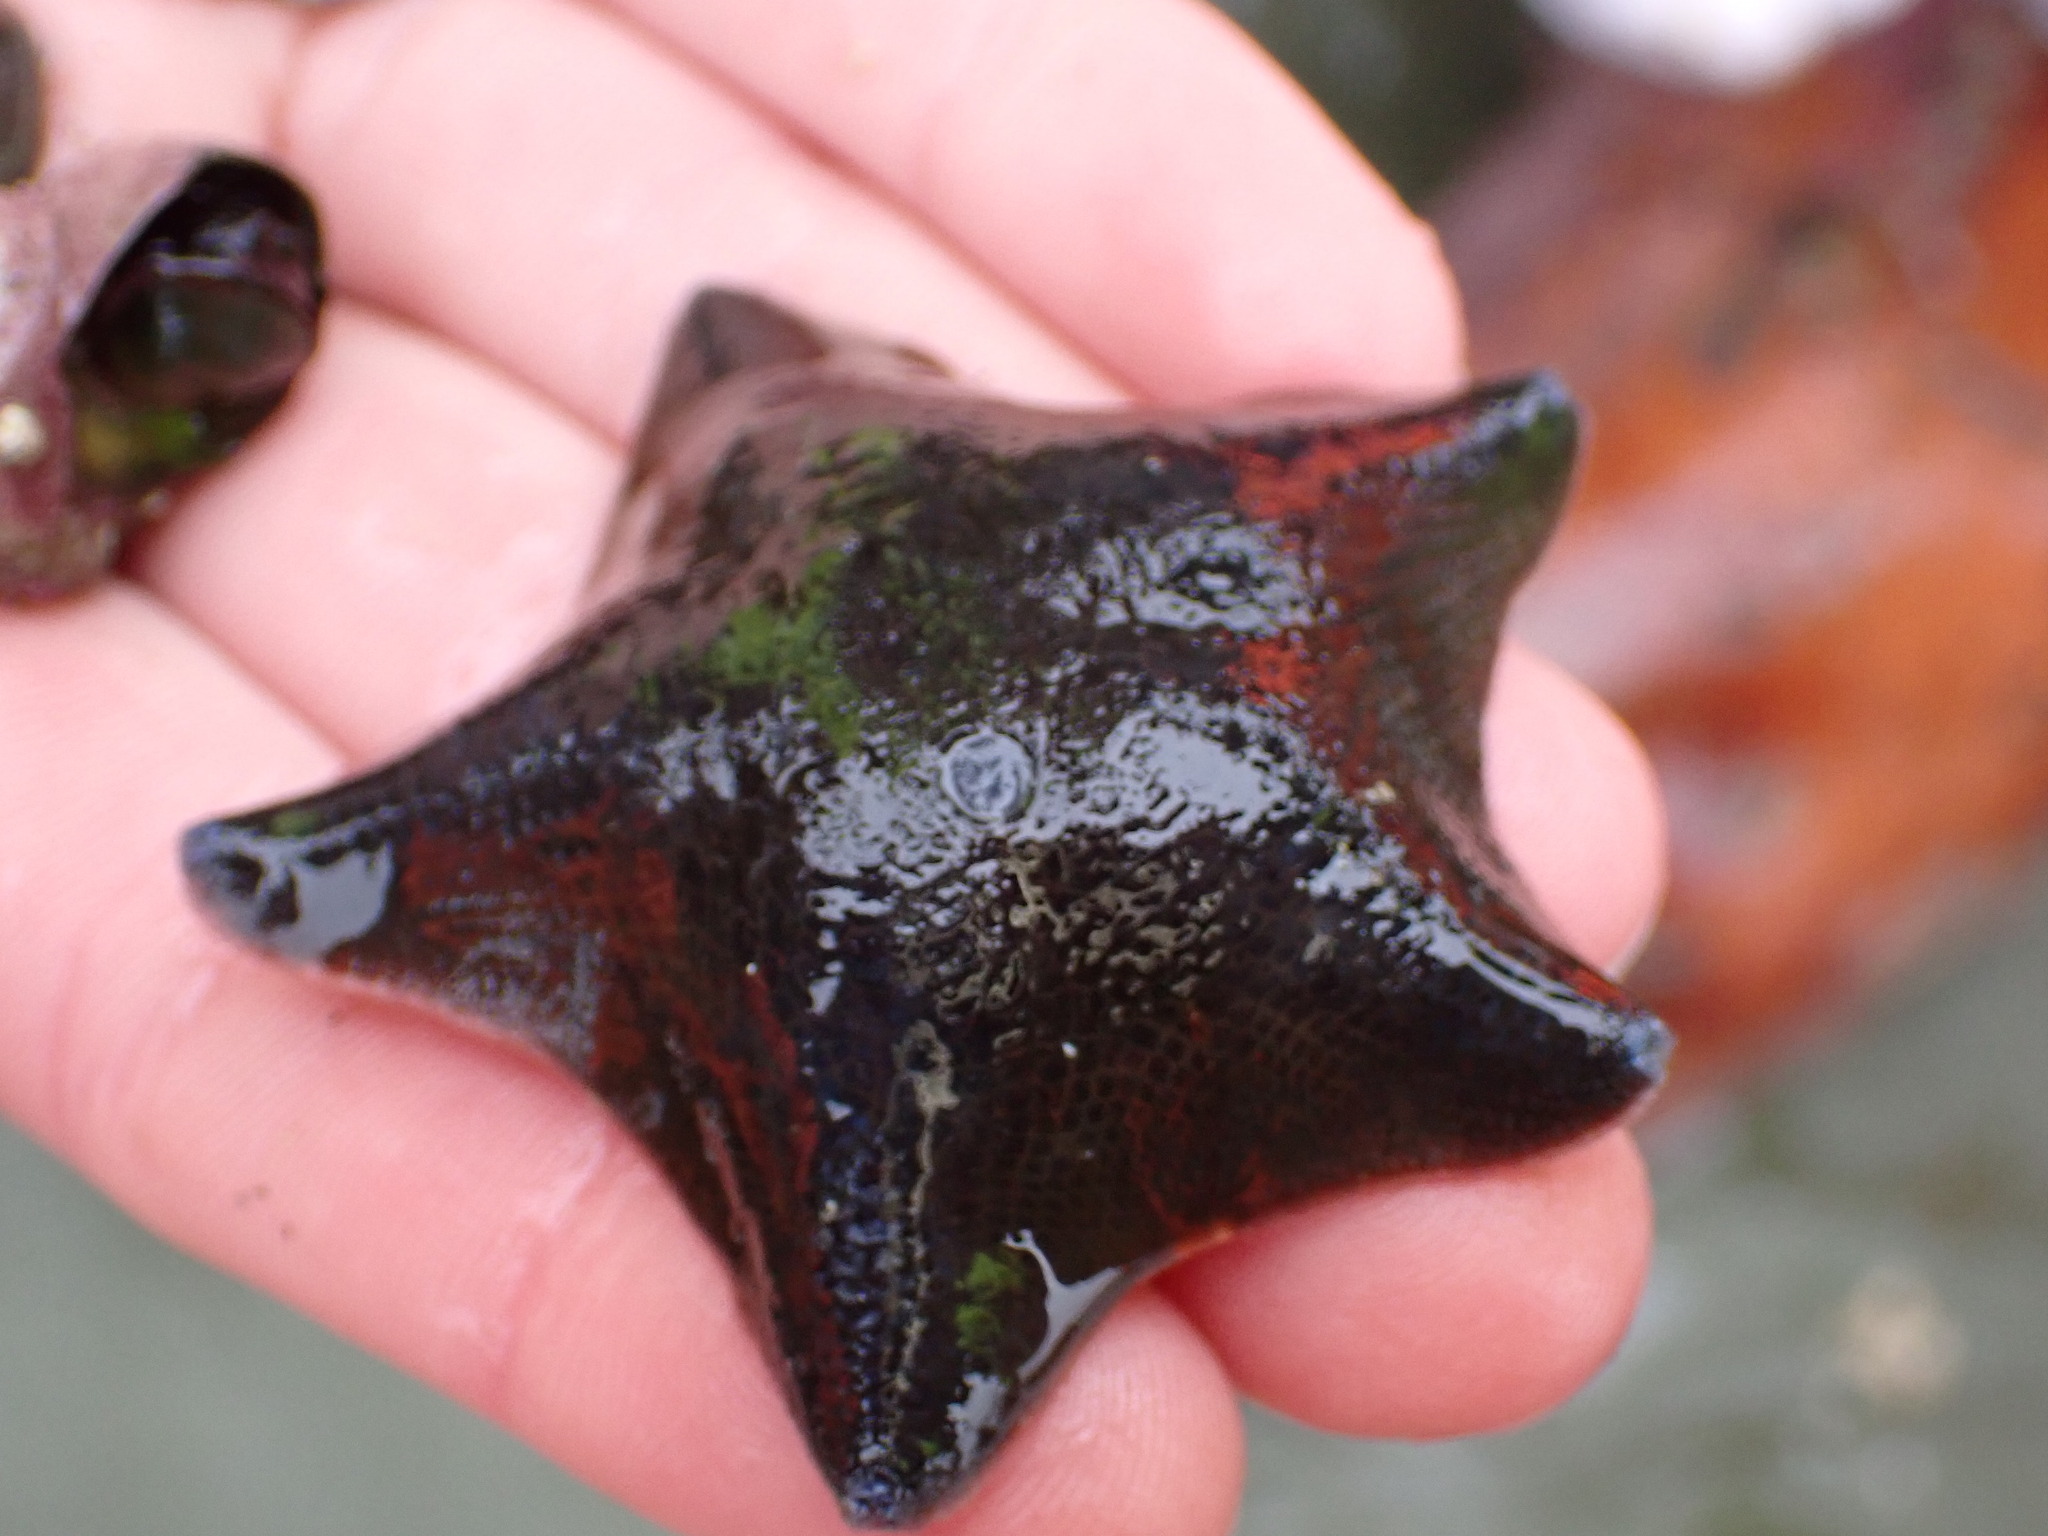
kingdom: Animalia
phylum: Echinodermata
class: Asteroidea
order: Valvatida
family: Asterinidae
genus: Patiriella
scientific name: Patiriella regularis
